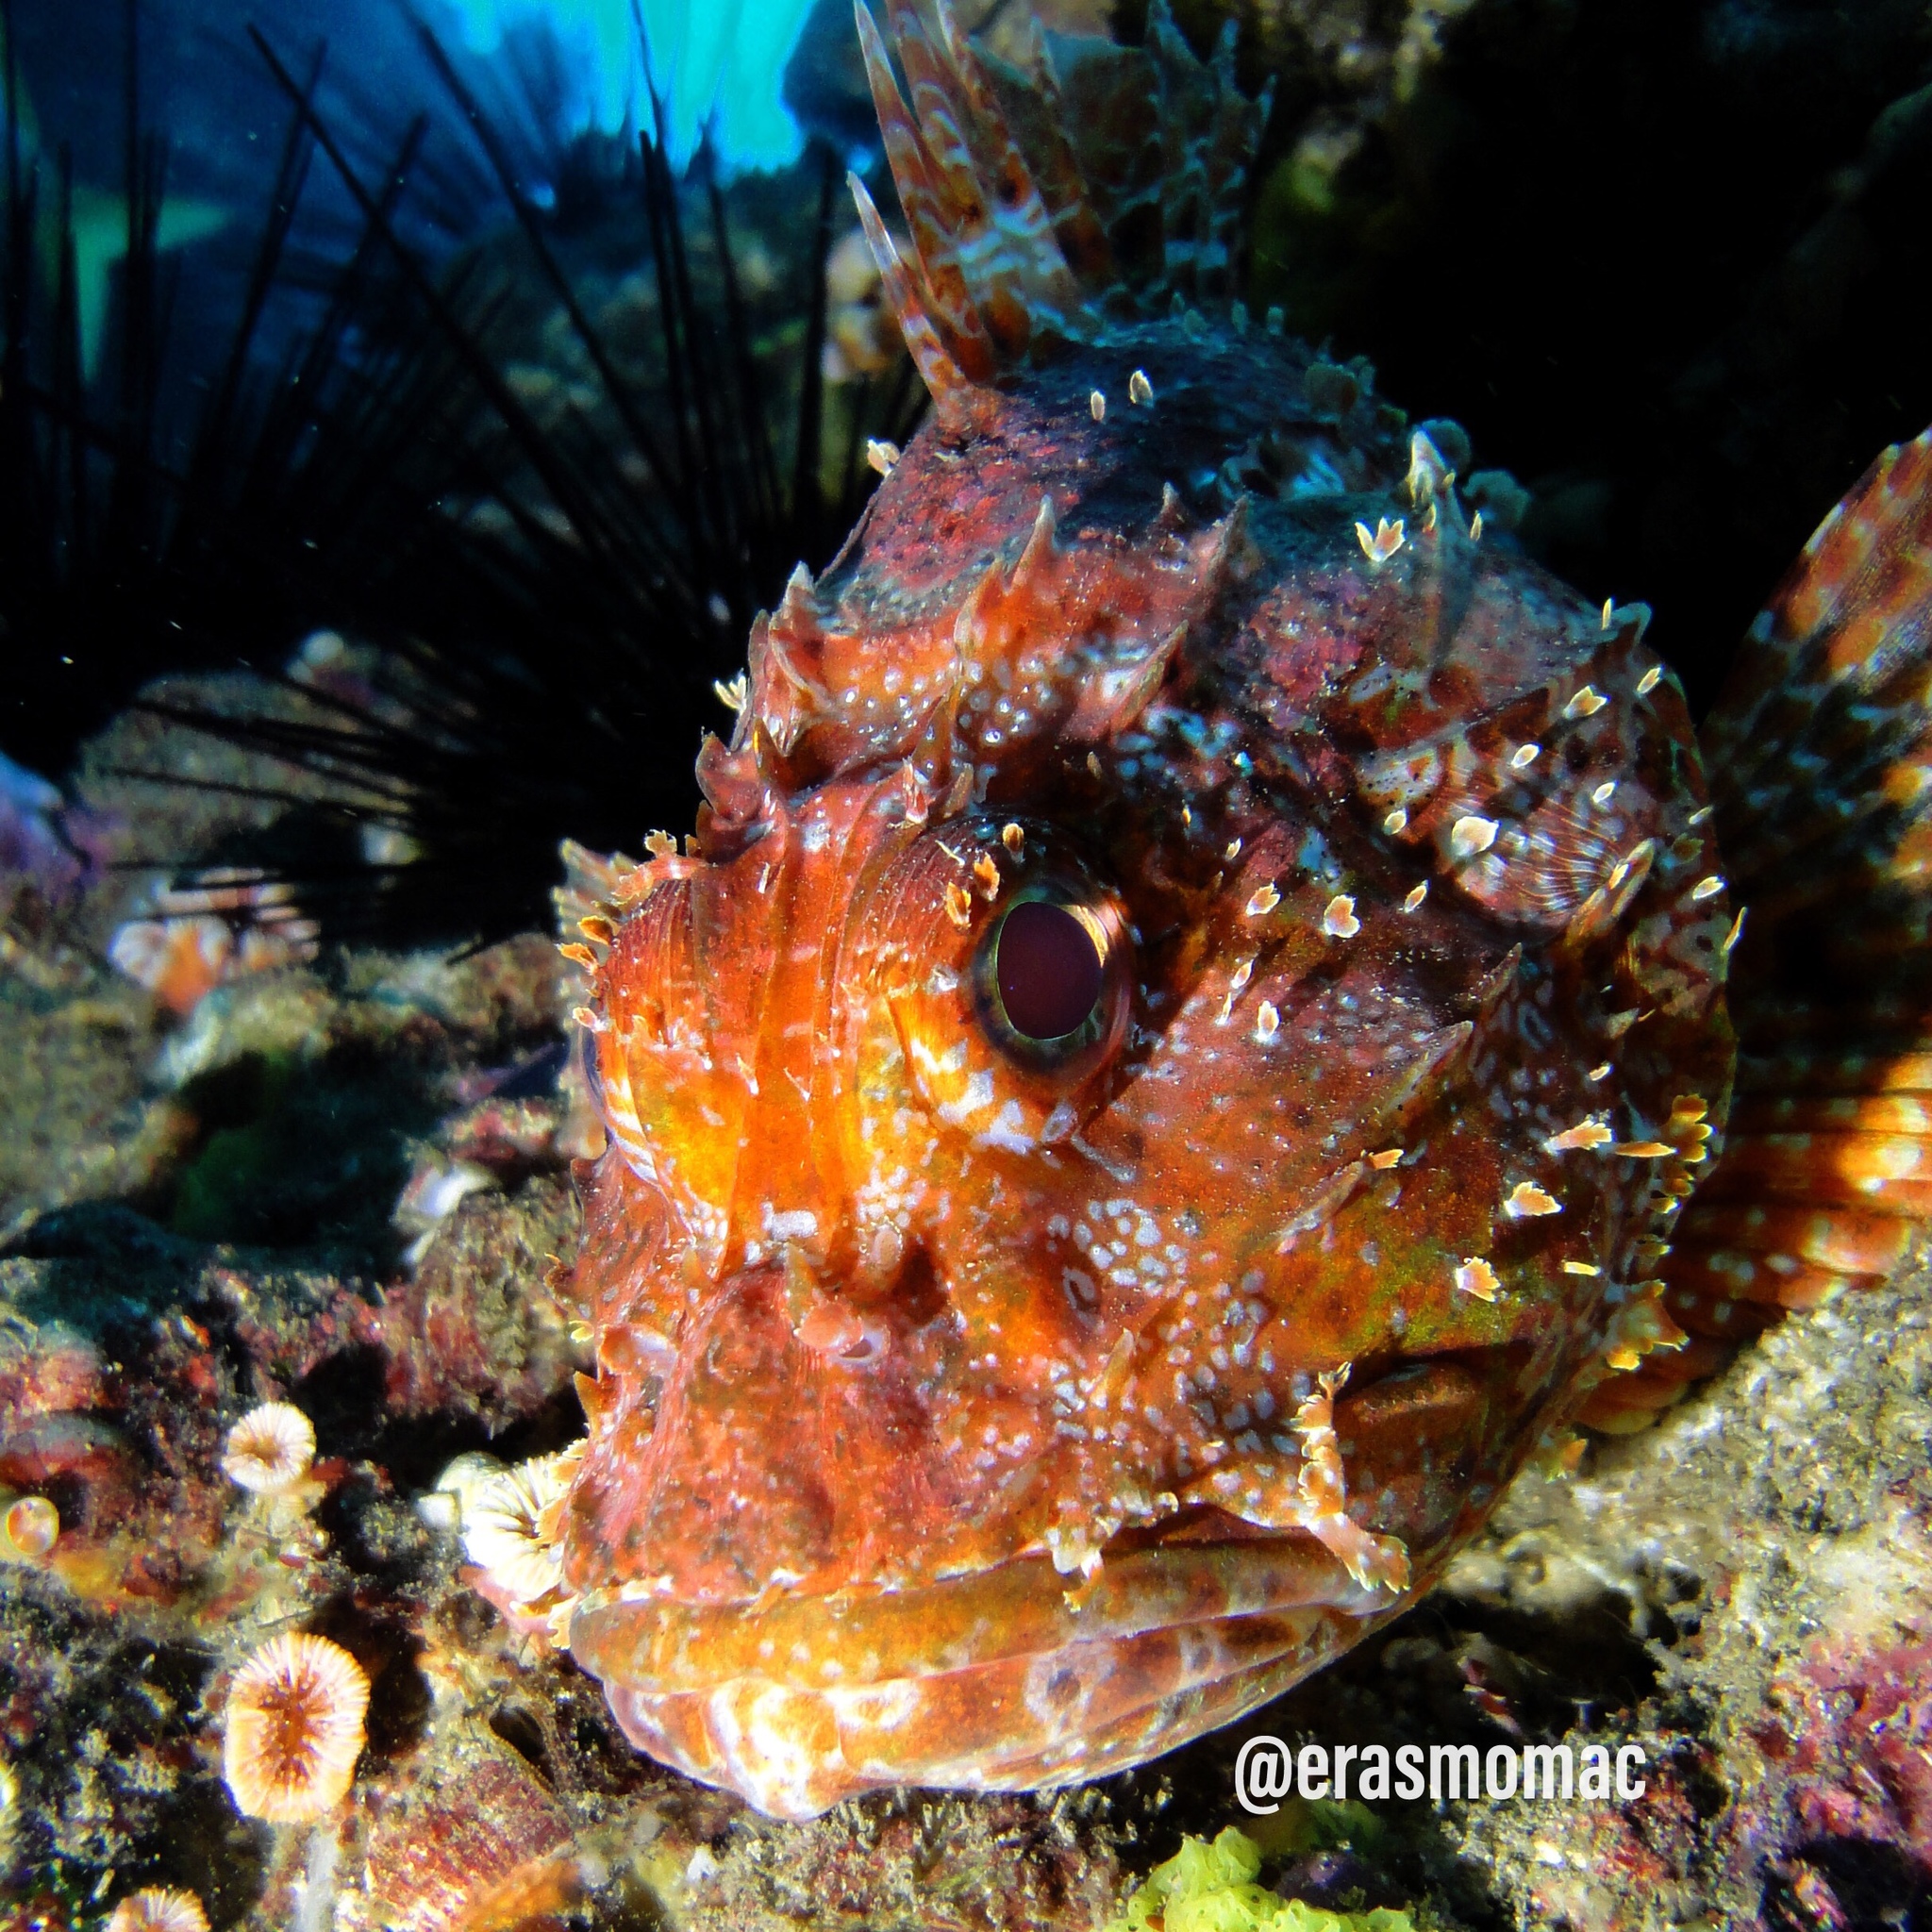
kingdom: Animalia
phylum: Chordata
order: Scorpaeniformes
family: Scorpaenidae
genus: Scorpaena
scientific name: Scorpaena thomsoni
